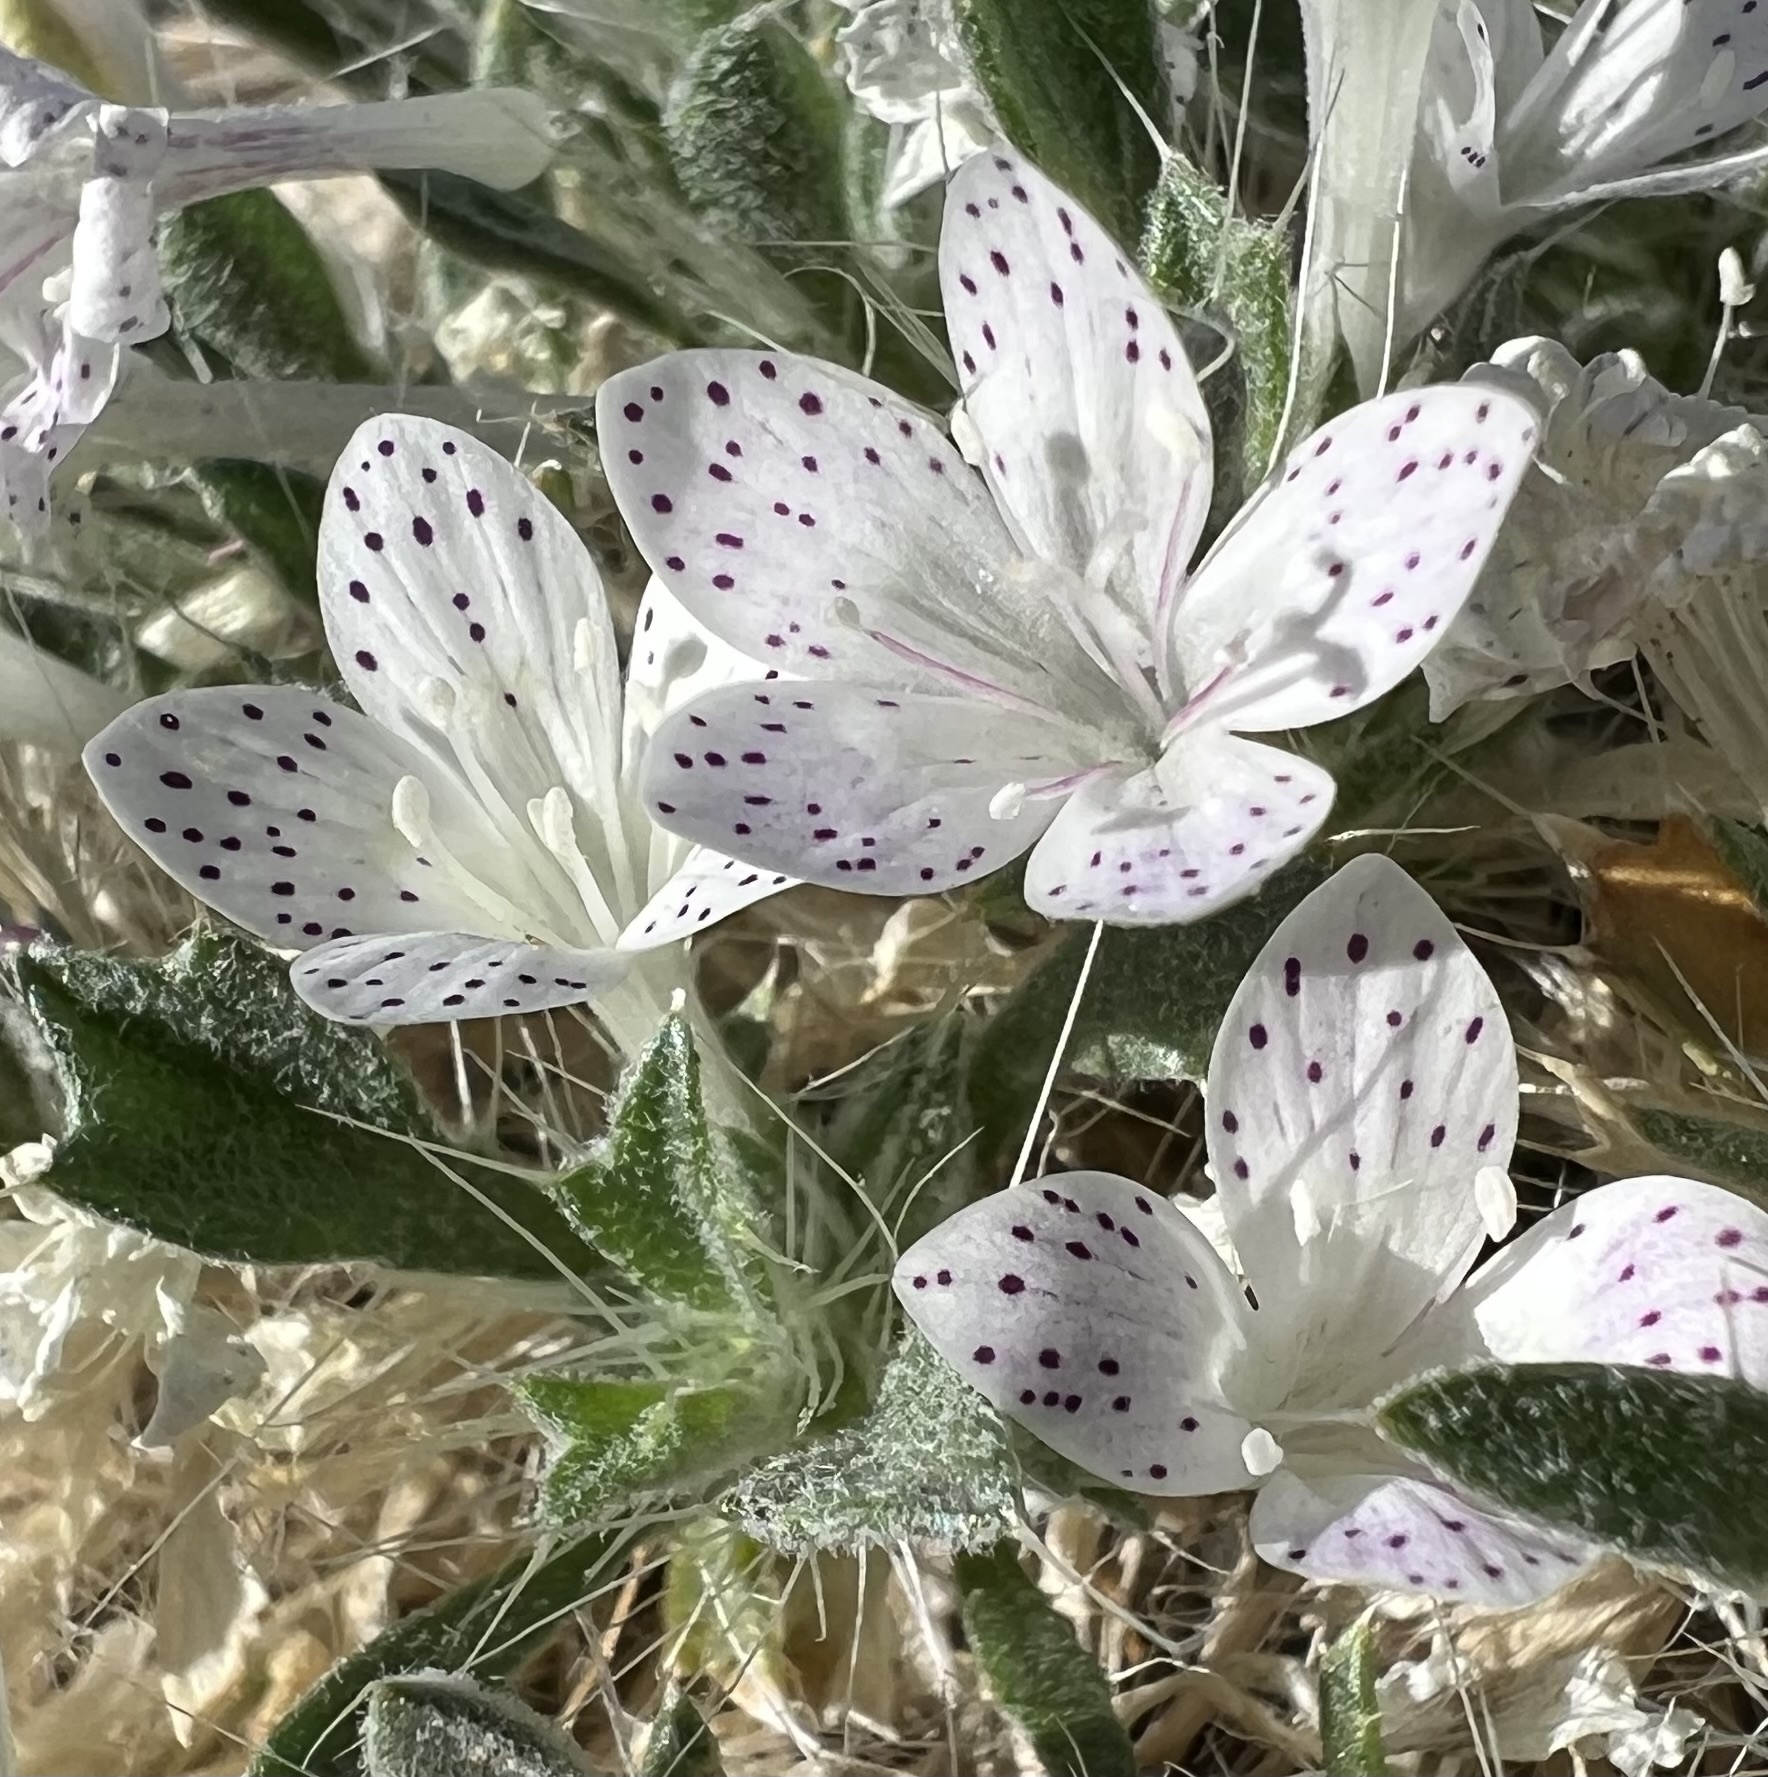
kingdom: Plantae
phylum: Tracheophyta
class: Magnoliopsida
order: Ericales
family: Polemoniaceae
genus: Langloisia
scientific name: Langloisia setosissima
